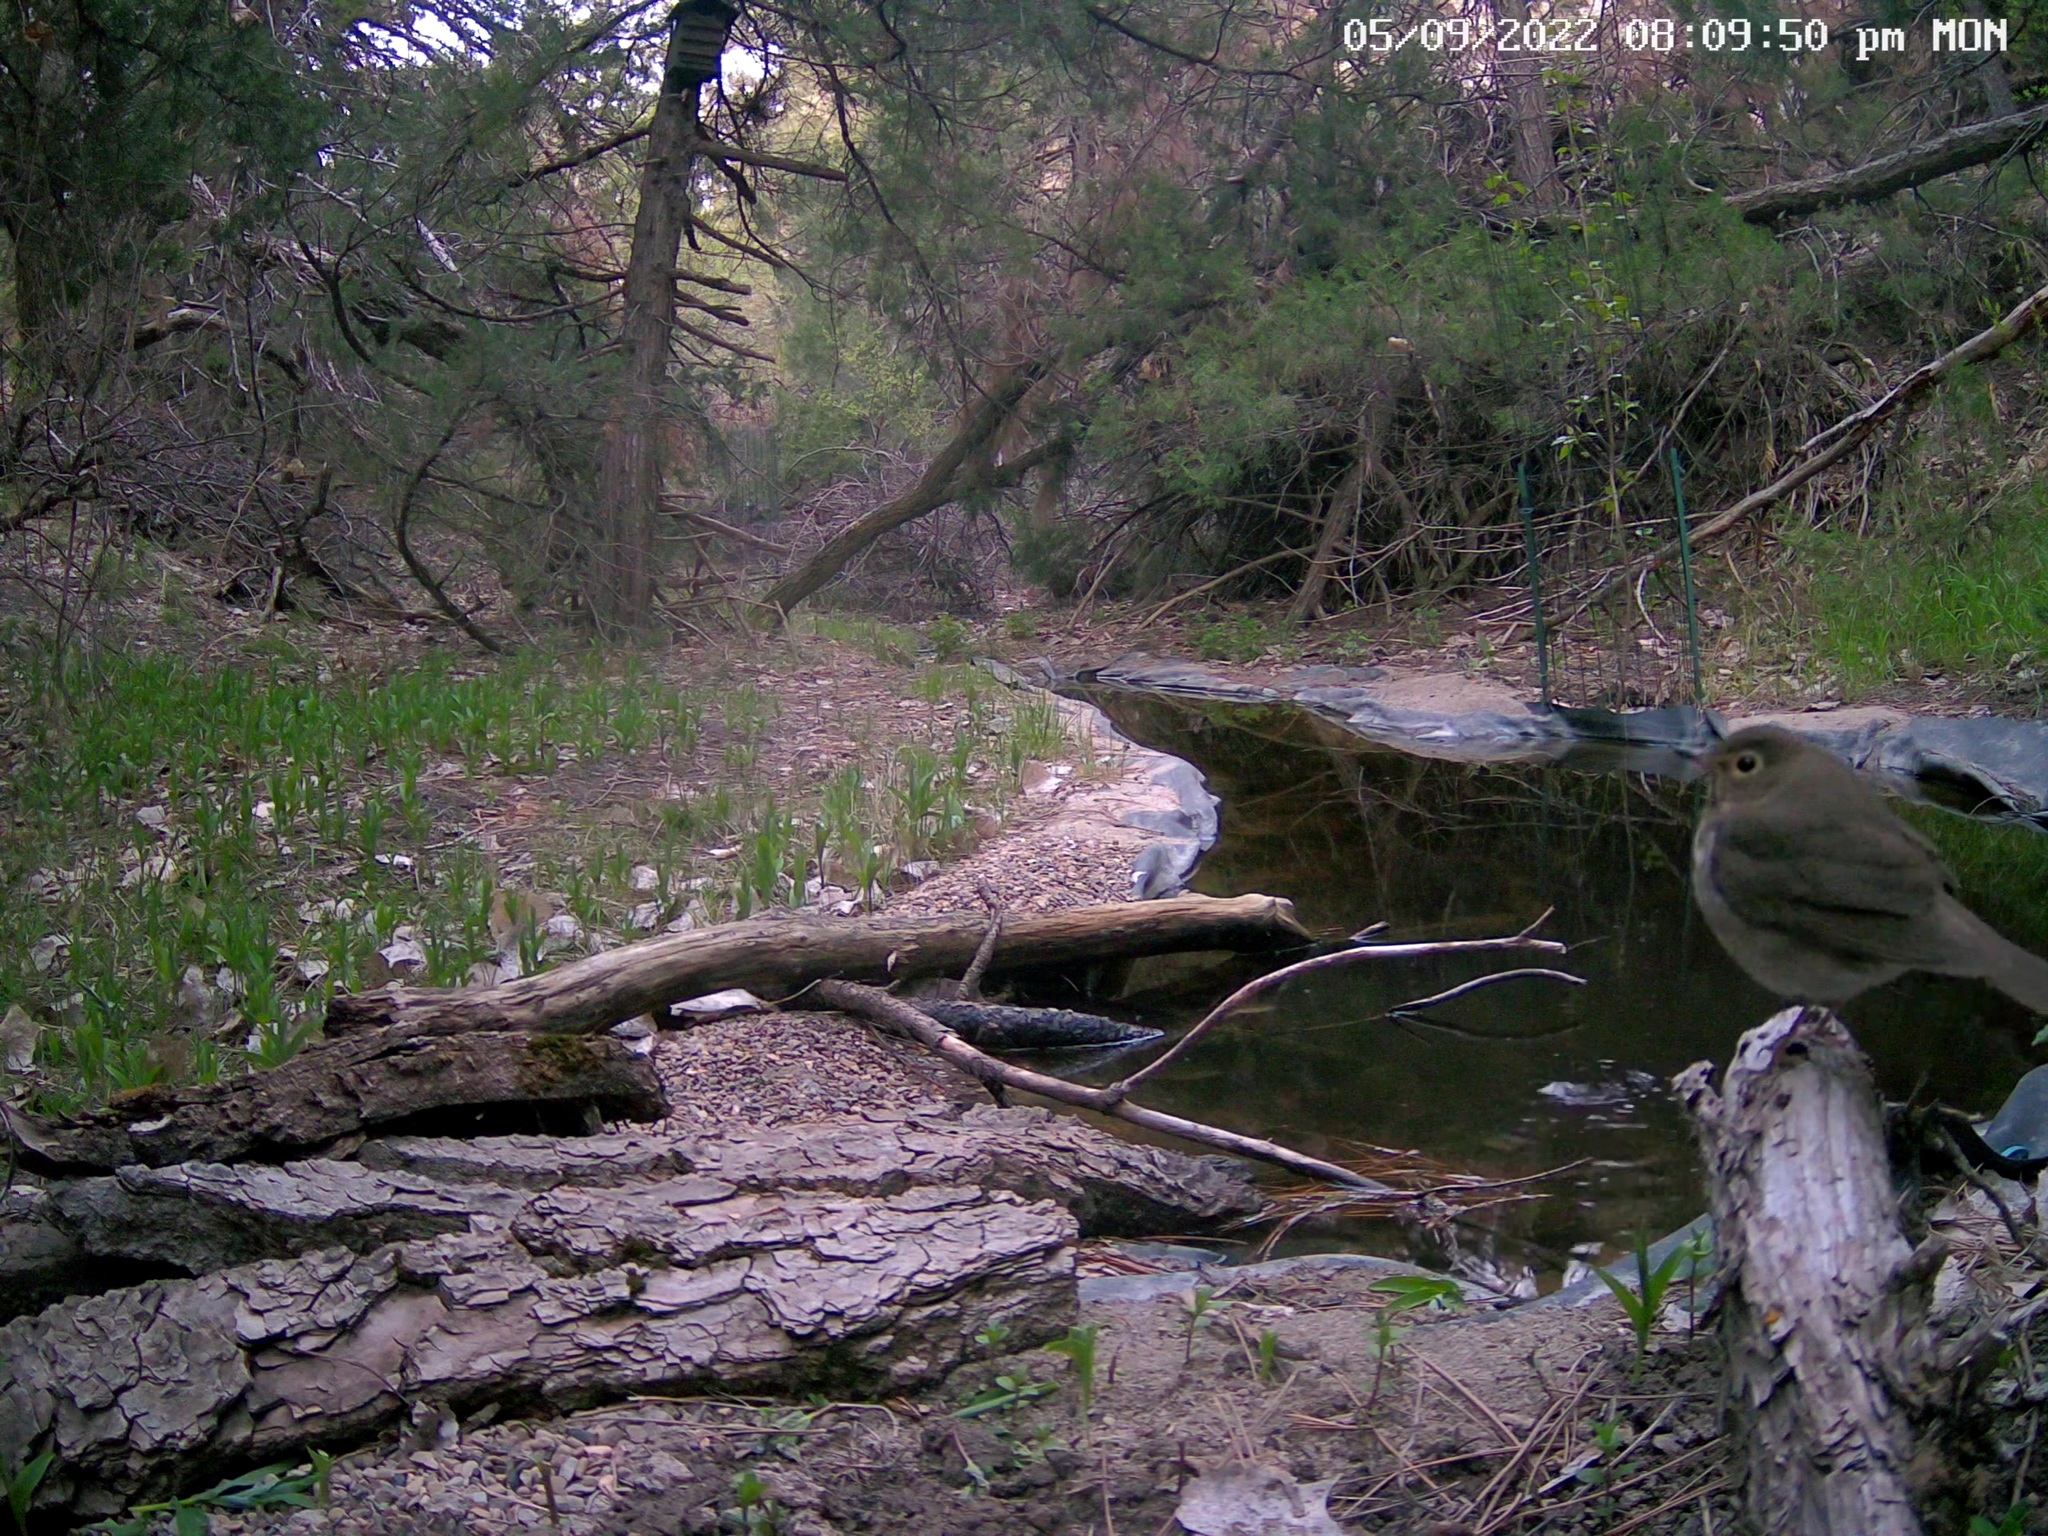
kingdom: Animalia
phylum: Chordata
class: Aves
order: Passeriformes
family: Turdidae
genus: Catharus
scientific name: Catharus ustulatus
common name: Swainson's thrush
